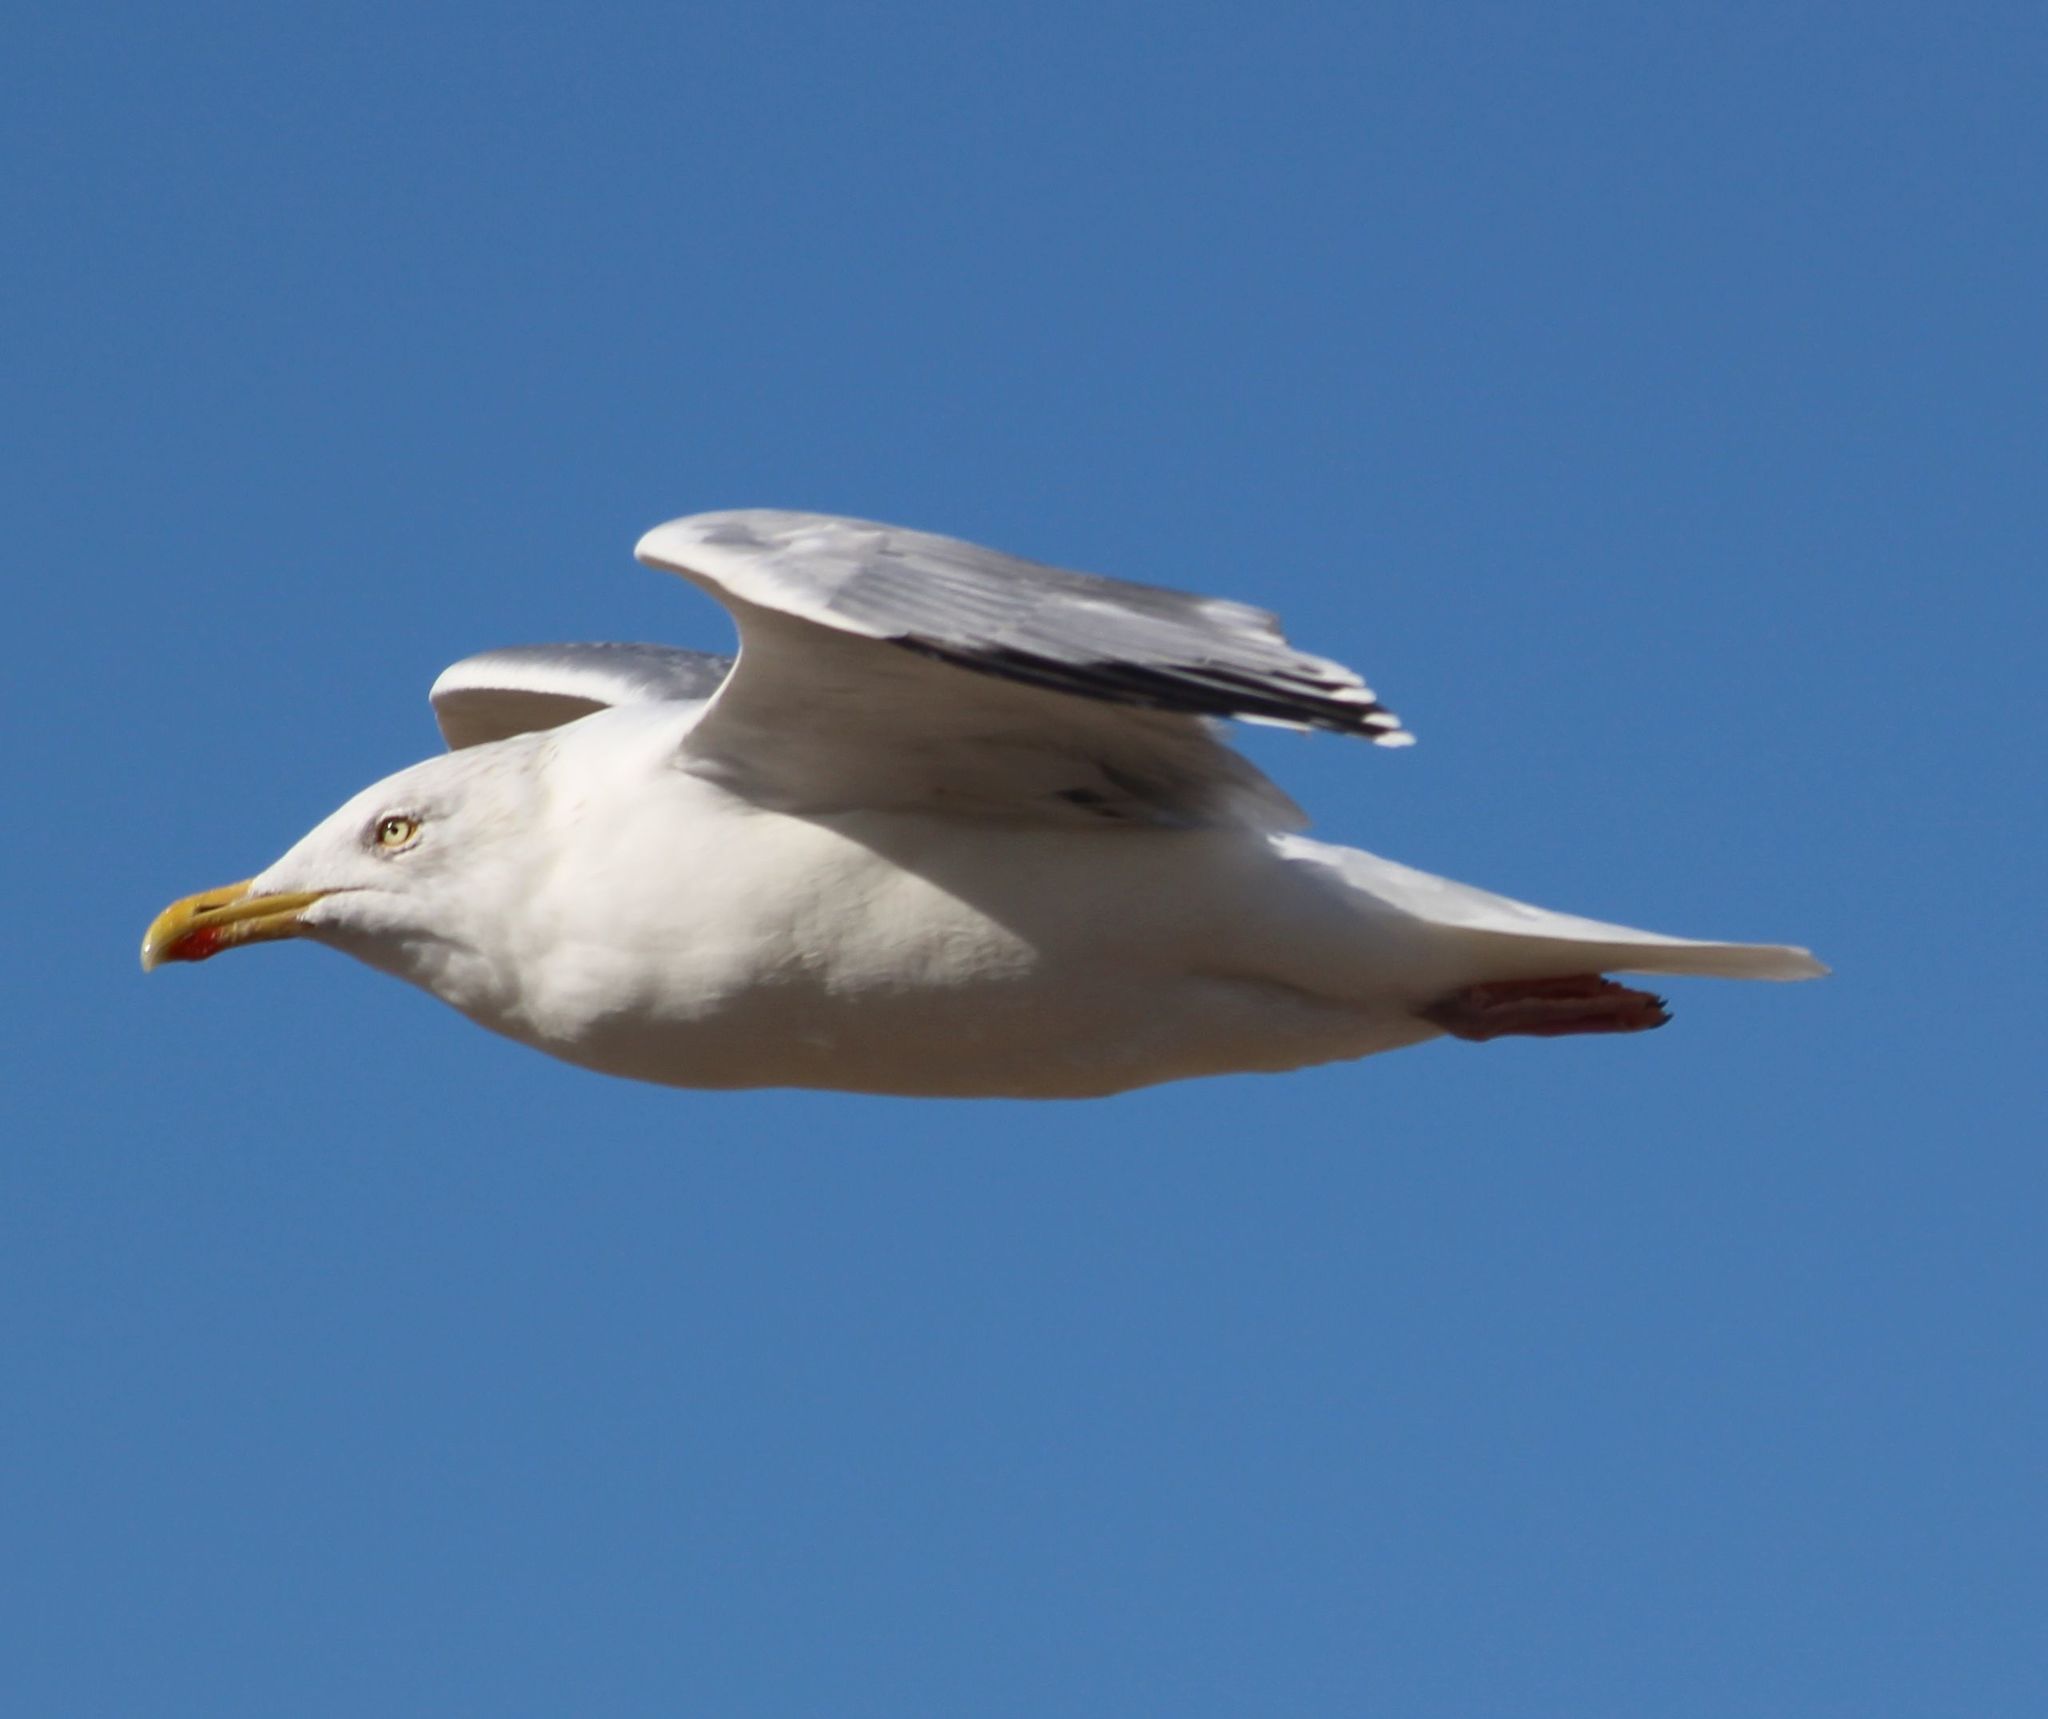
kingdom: Animalia
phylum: Chordata
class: Aves
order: Charadriiformes
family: Laridae
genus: Larus
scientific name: Larus argentatus
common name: Herring gull
